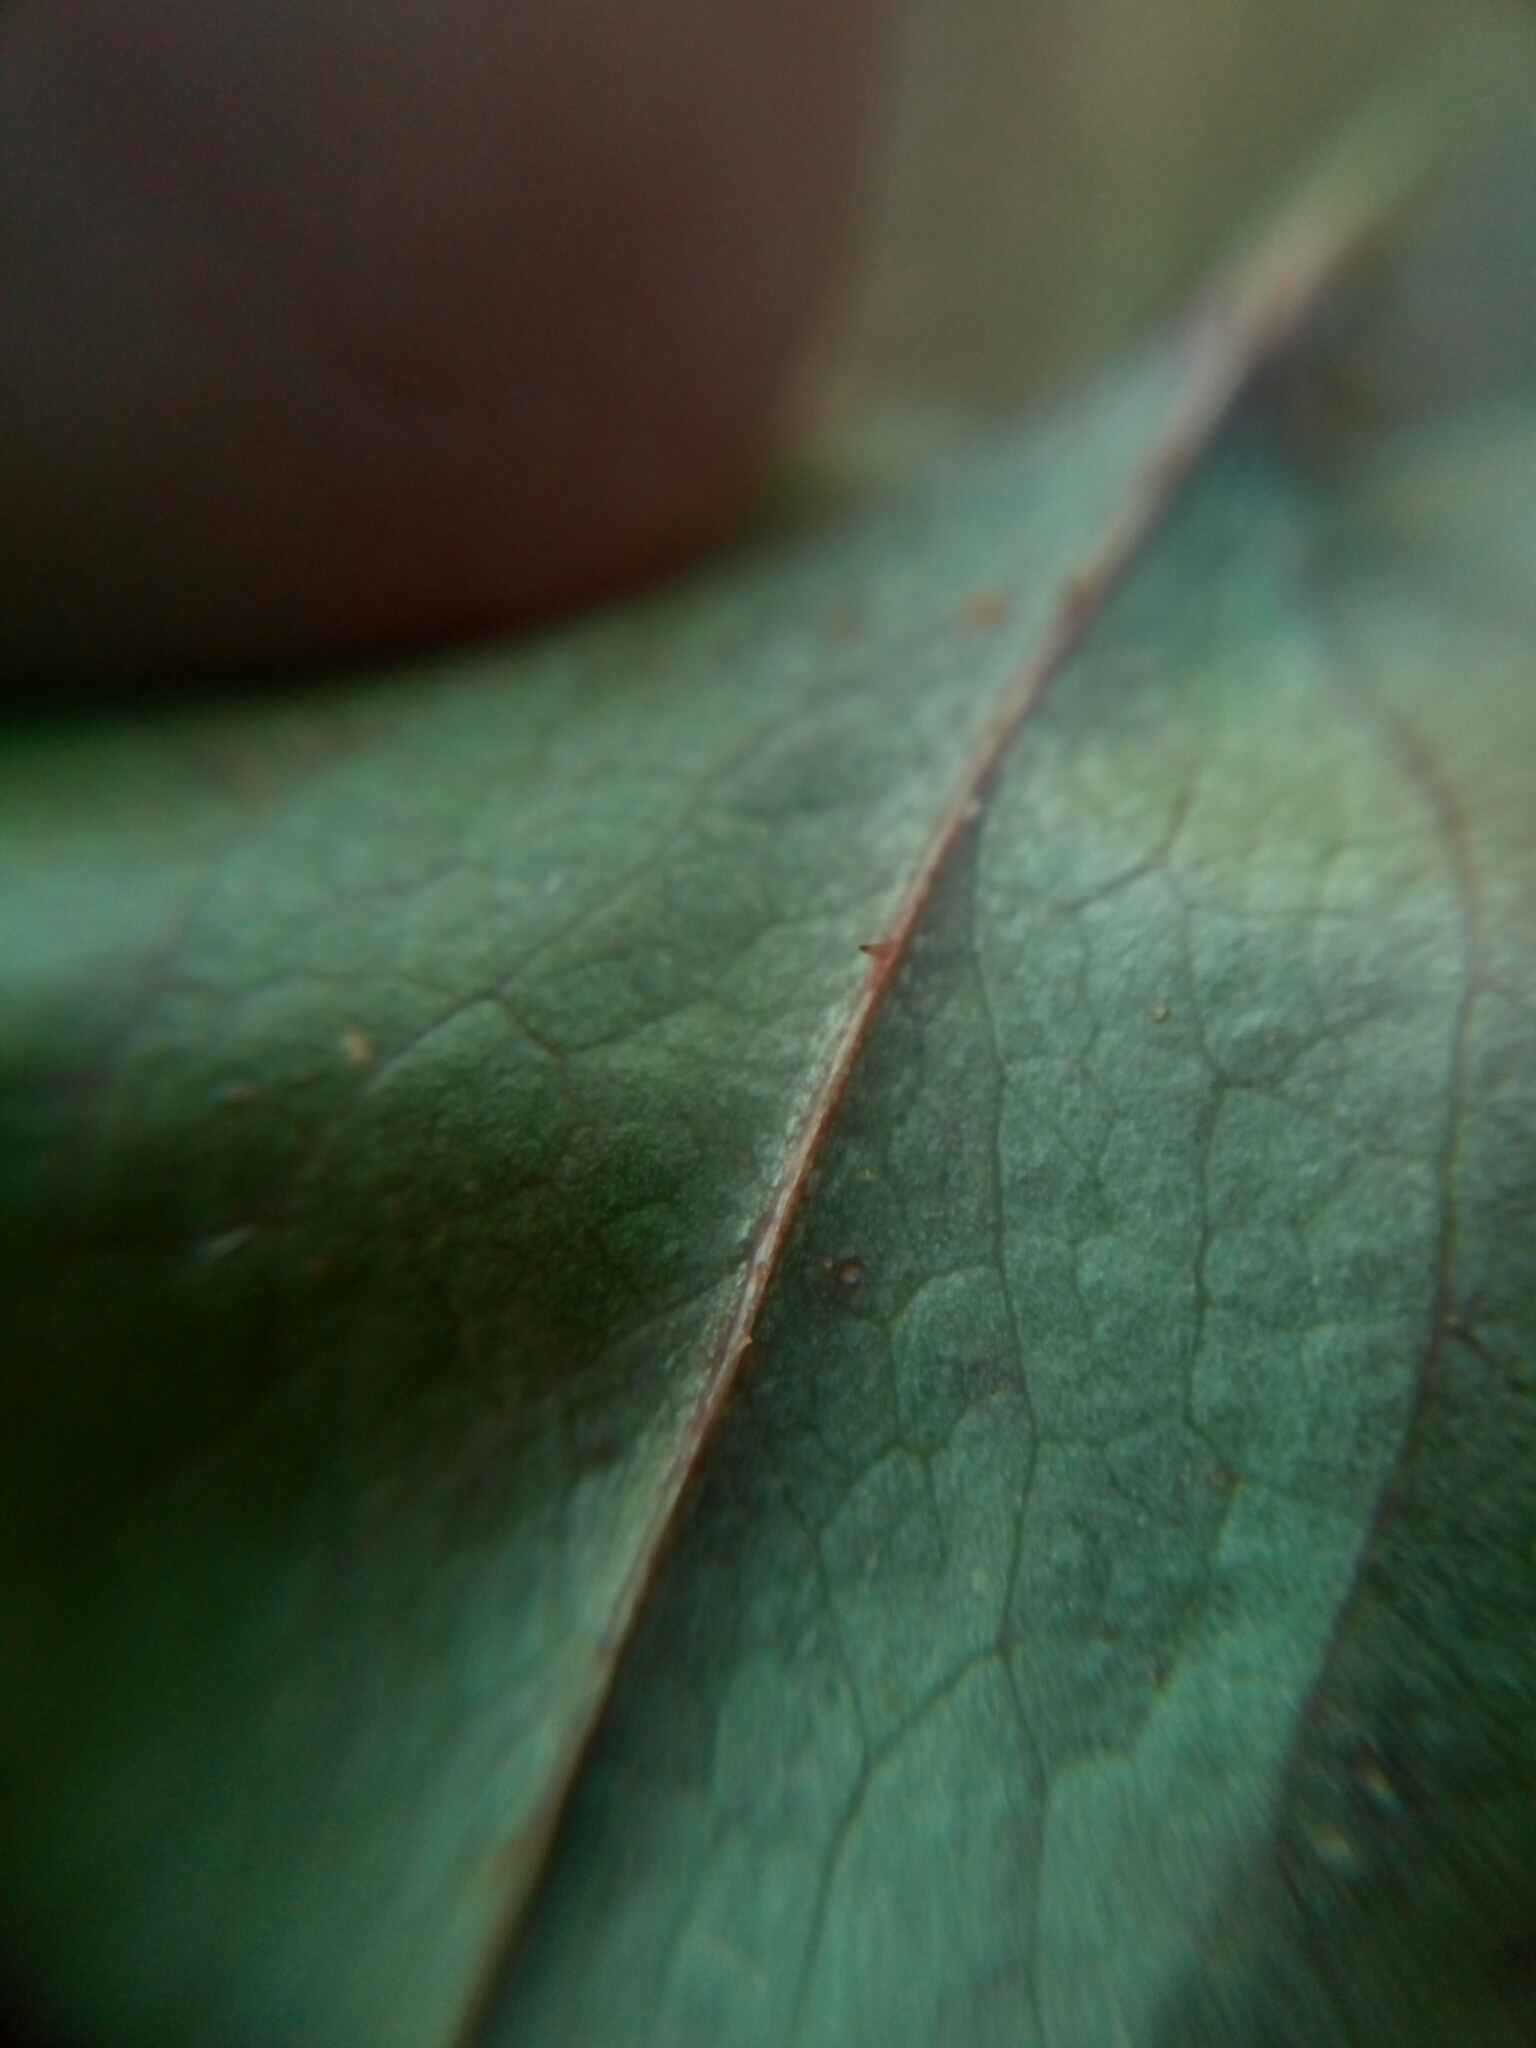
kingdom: Plantae
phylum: Tracheophyta
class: Liliopsida
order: Liliales
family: Smilacaceae
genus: Smilax
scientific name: Smilax bona-nox
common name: Catbrier
